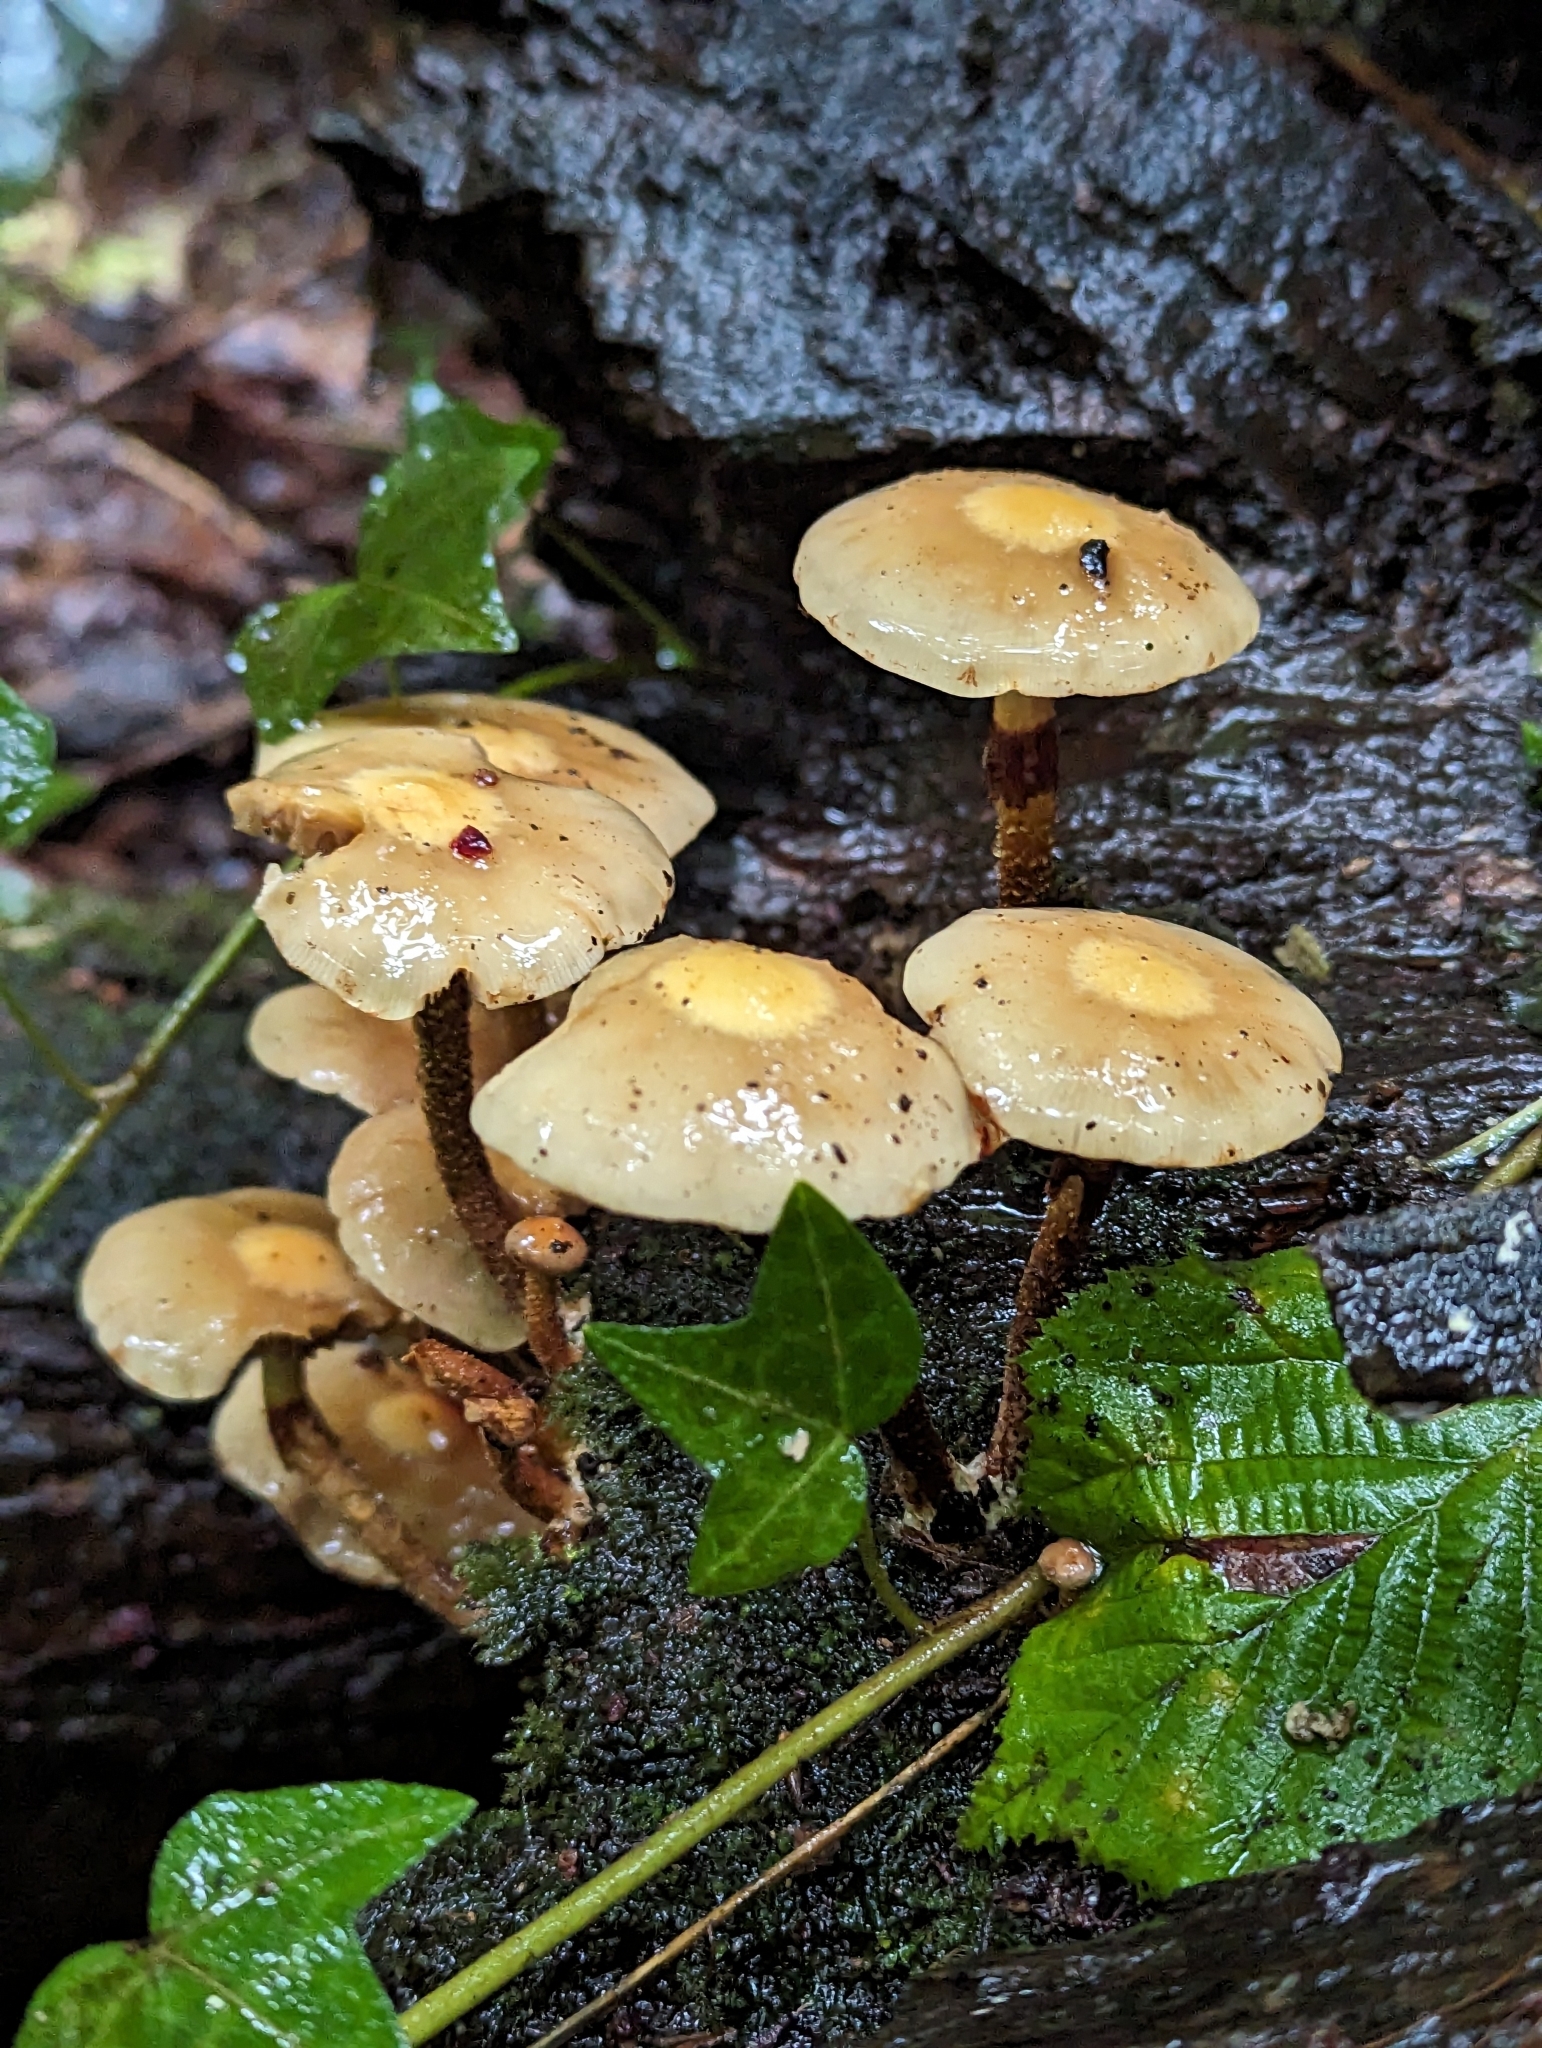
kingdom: Fungi
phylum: Basidiomycota
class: Agaricomycetes
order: Agaricales
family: Strophariaceae
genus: Kuehneromyces
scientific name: Kuehneromyces mutabilis
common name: Sheathed woodtuft
